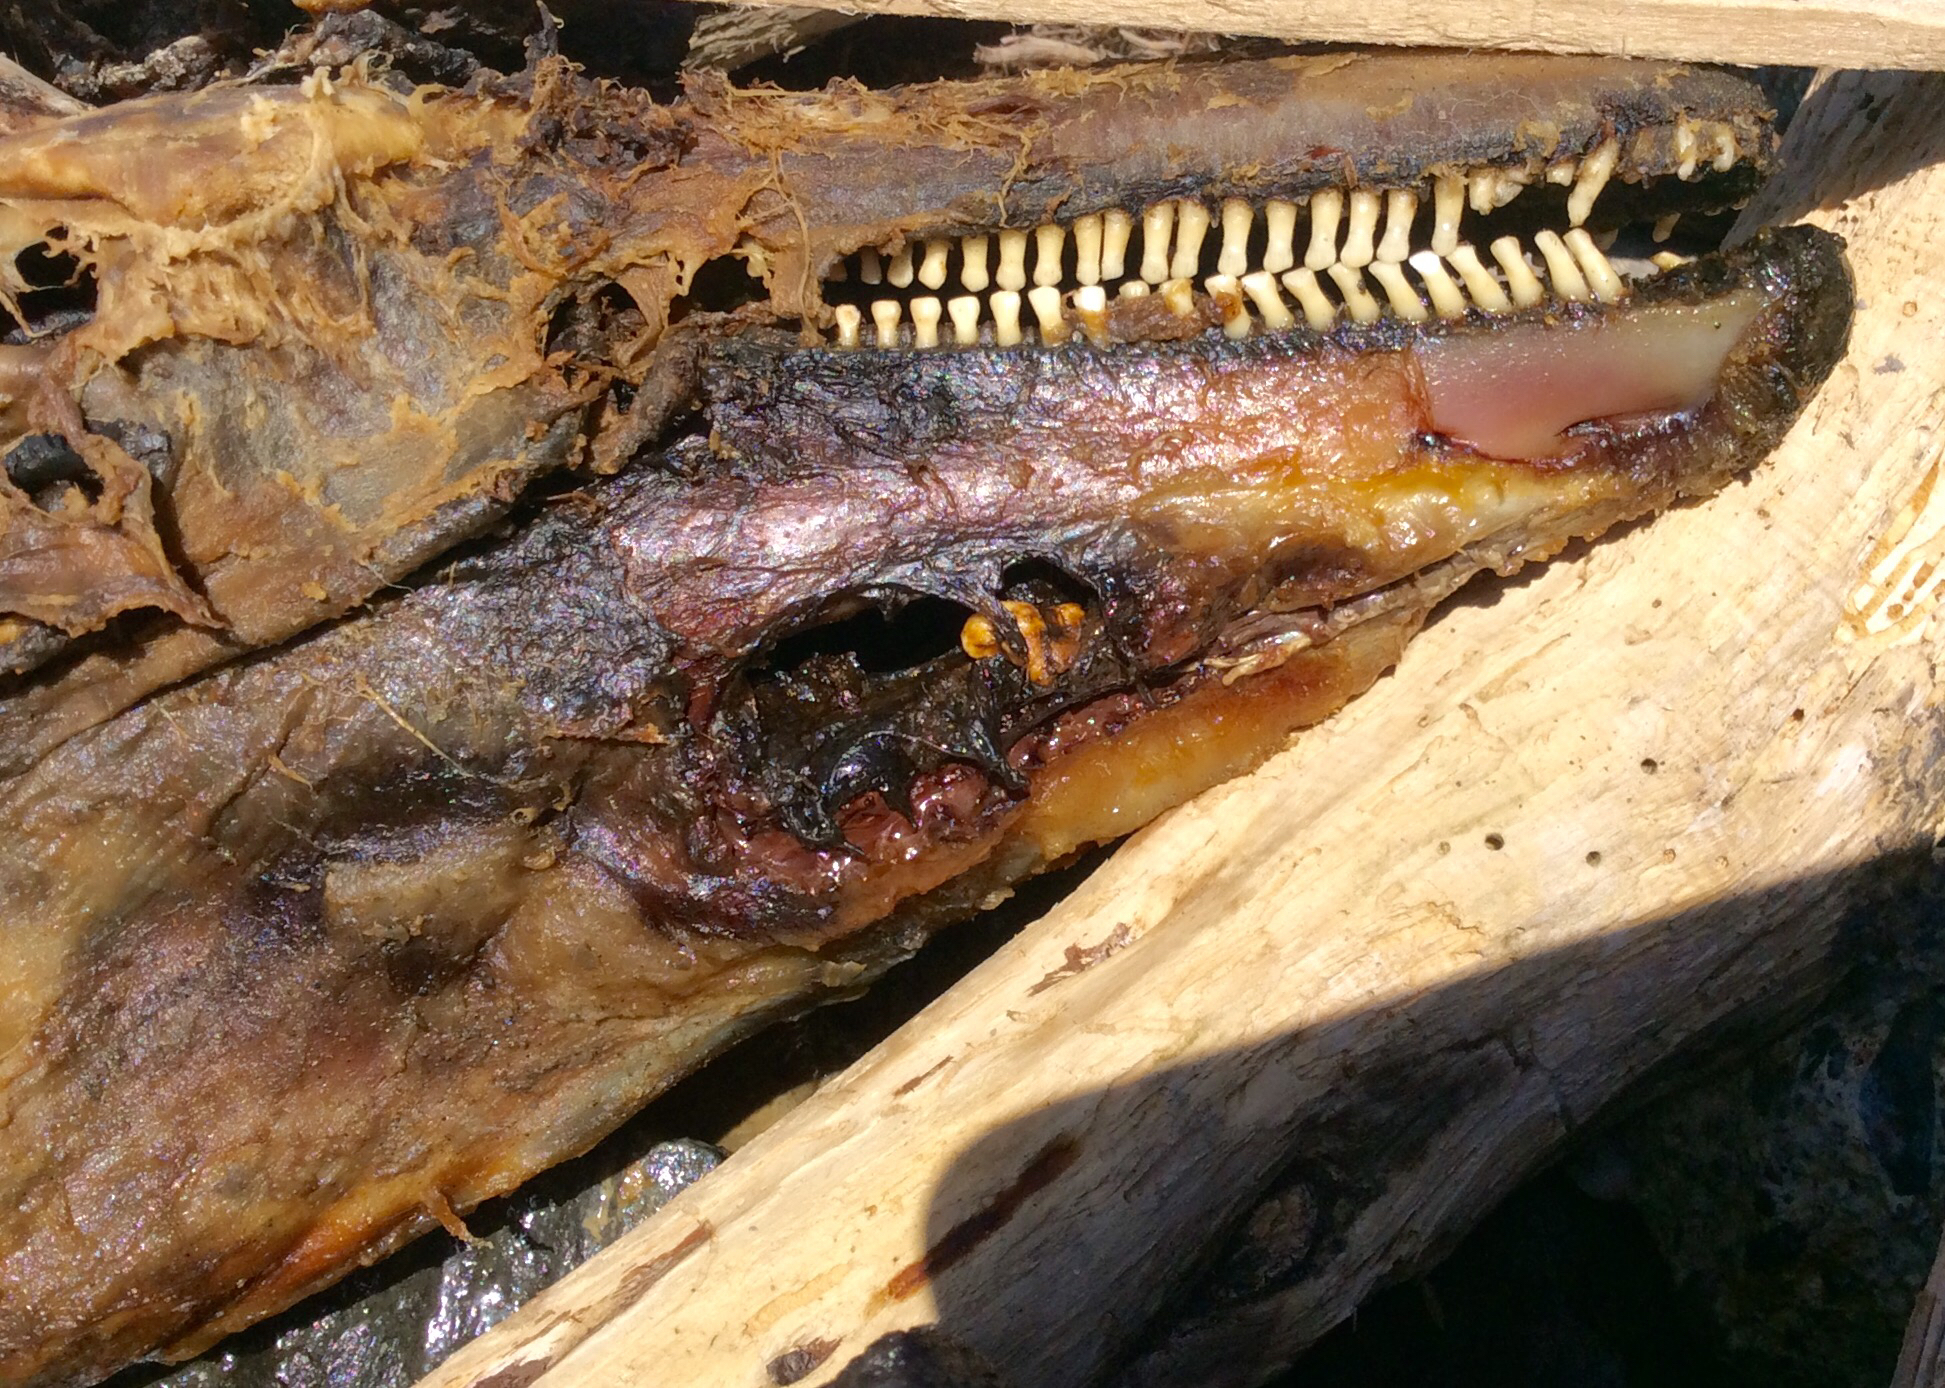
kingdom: Animalia
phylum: Chordata
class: Mammalia
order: Cetacea
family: Phocoenidae
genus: Phocoena
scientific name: Phocoena phocoena
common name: Harbor porpoise
